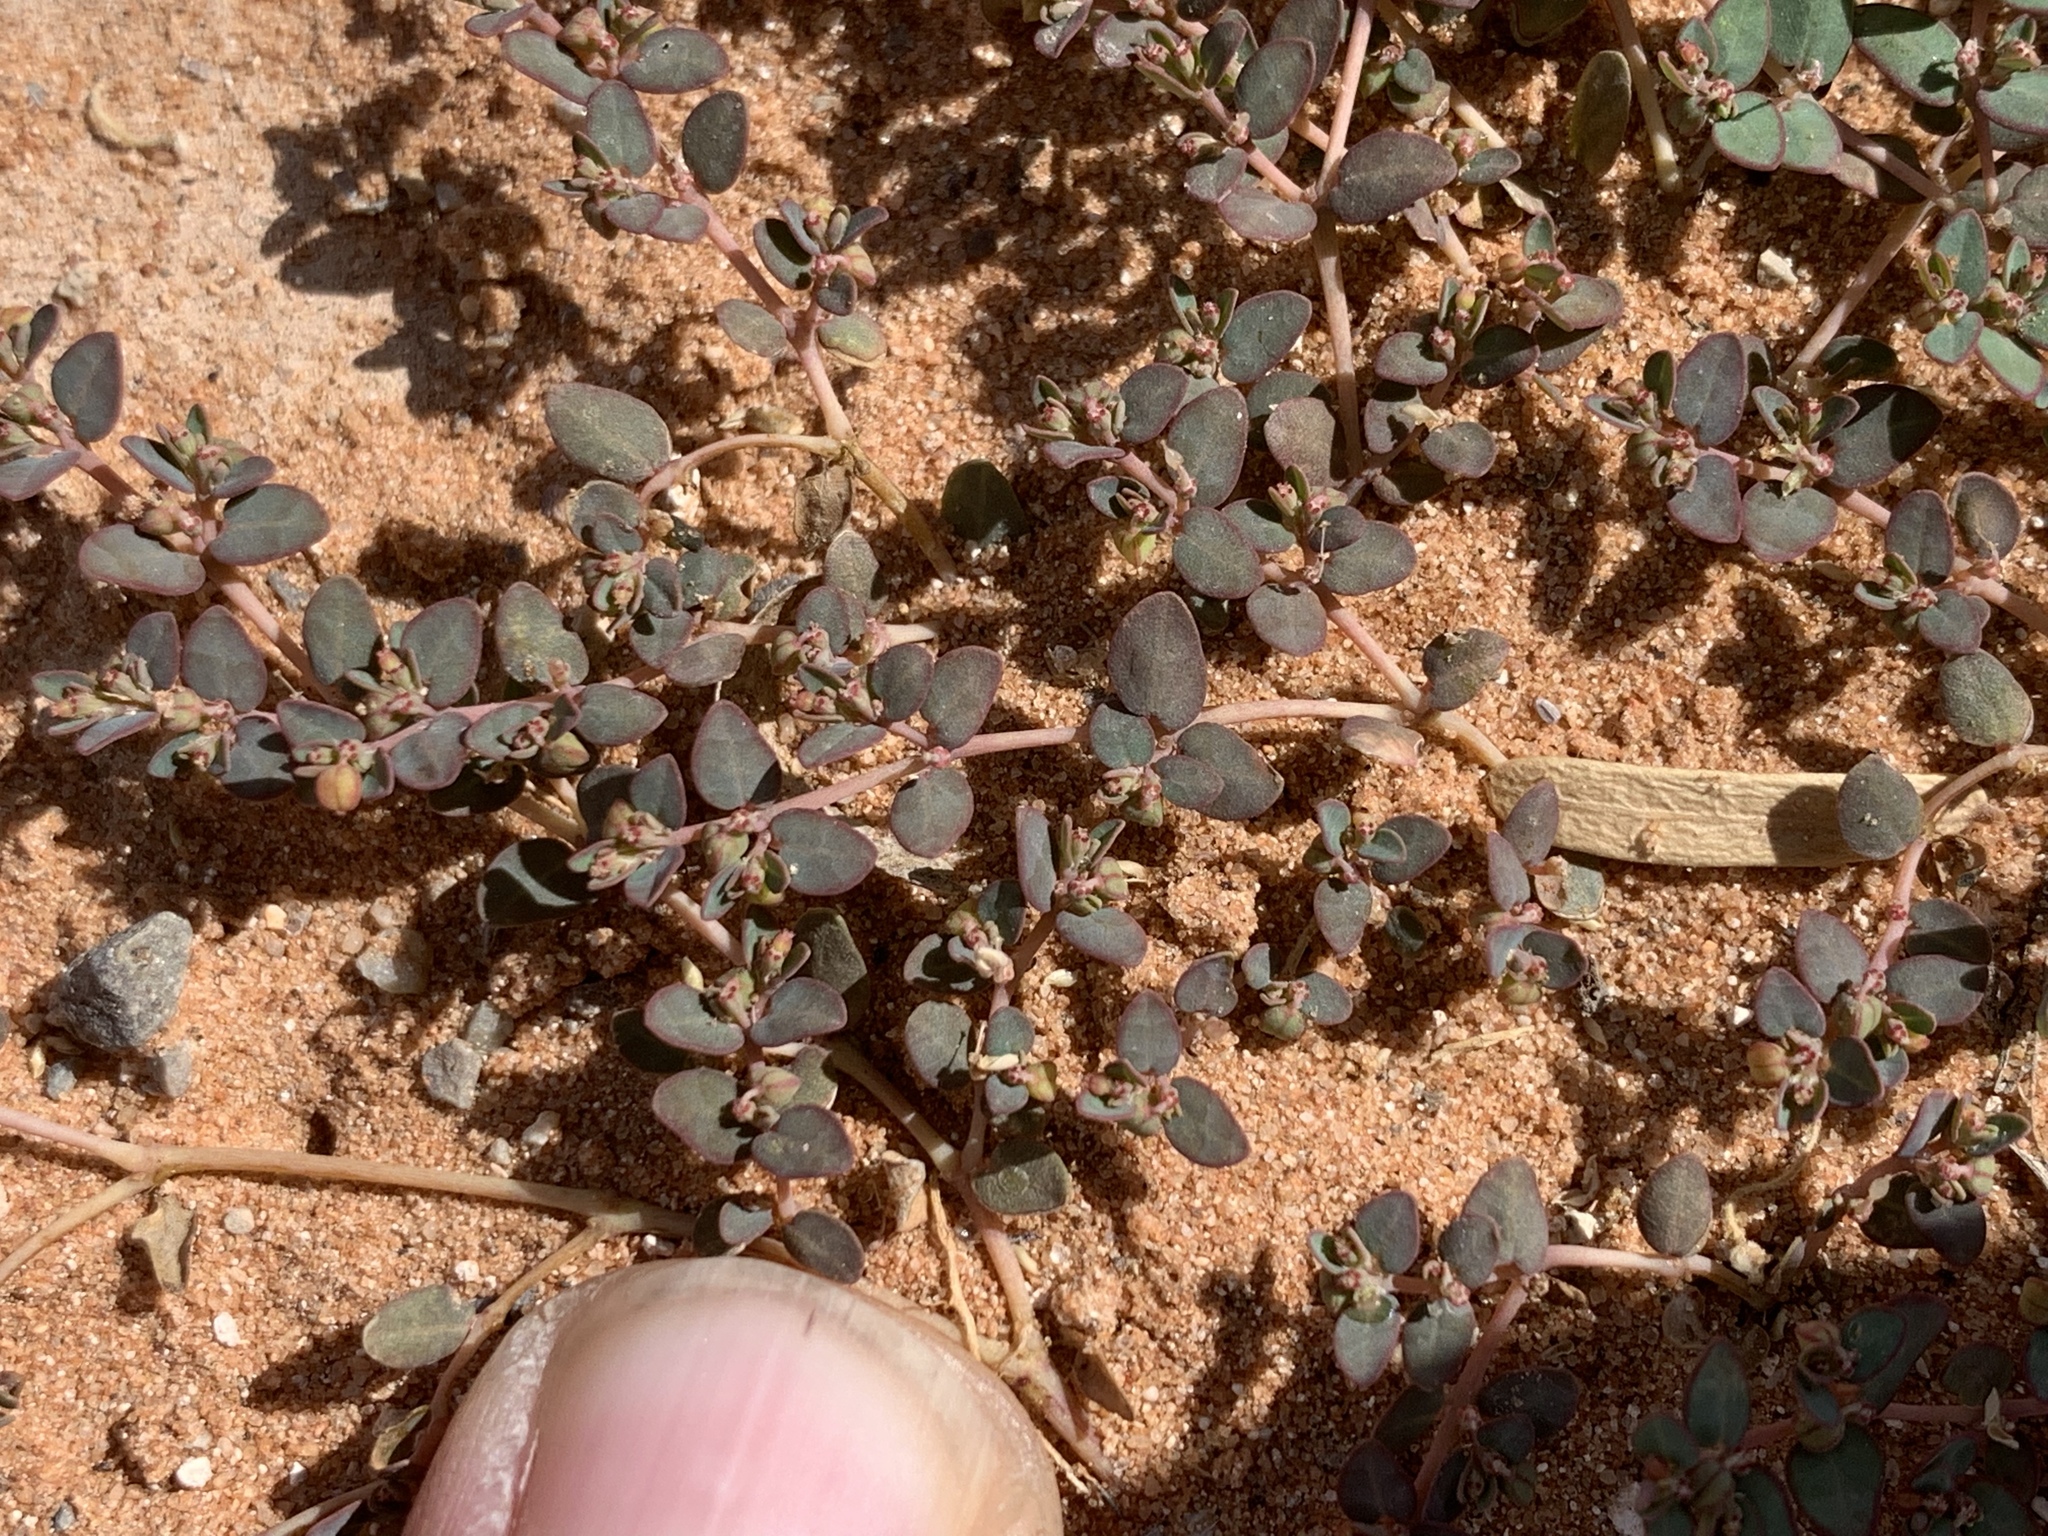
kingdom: Plantae
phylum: Tracheophyta
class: Magnoliopsida
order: Malpighiales
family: Euphorbiaceae
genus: Euphorbia
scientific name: Euphorbia micromera
